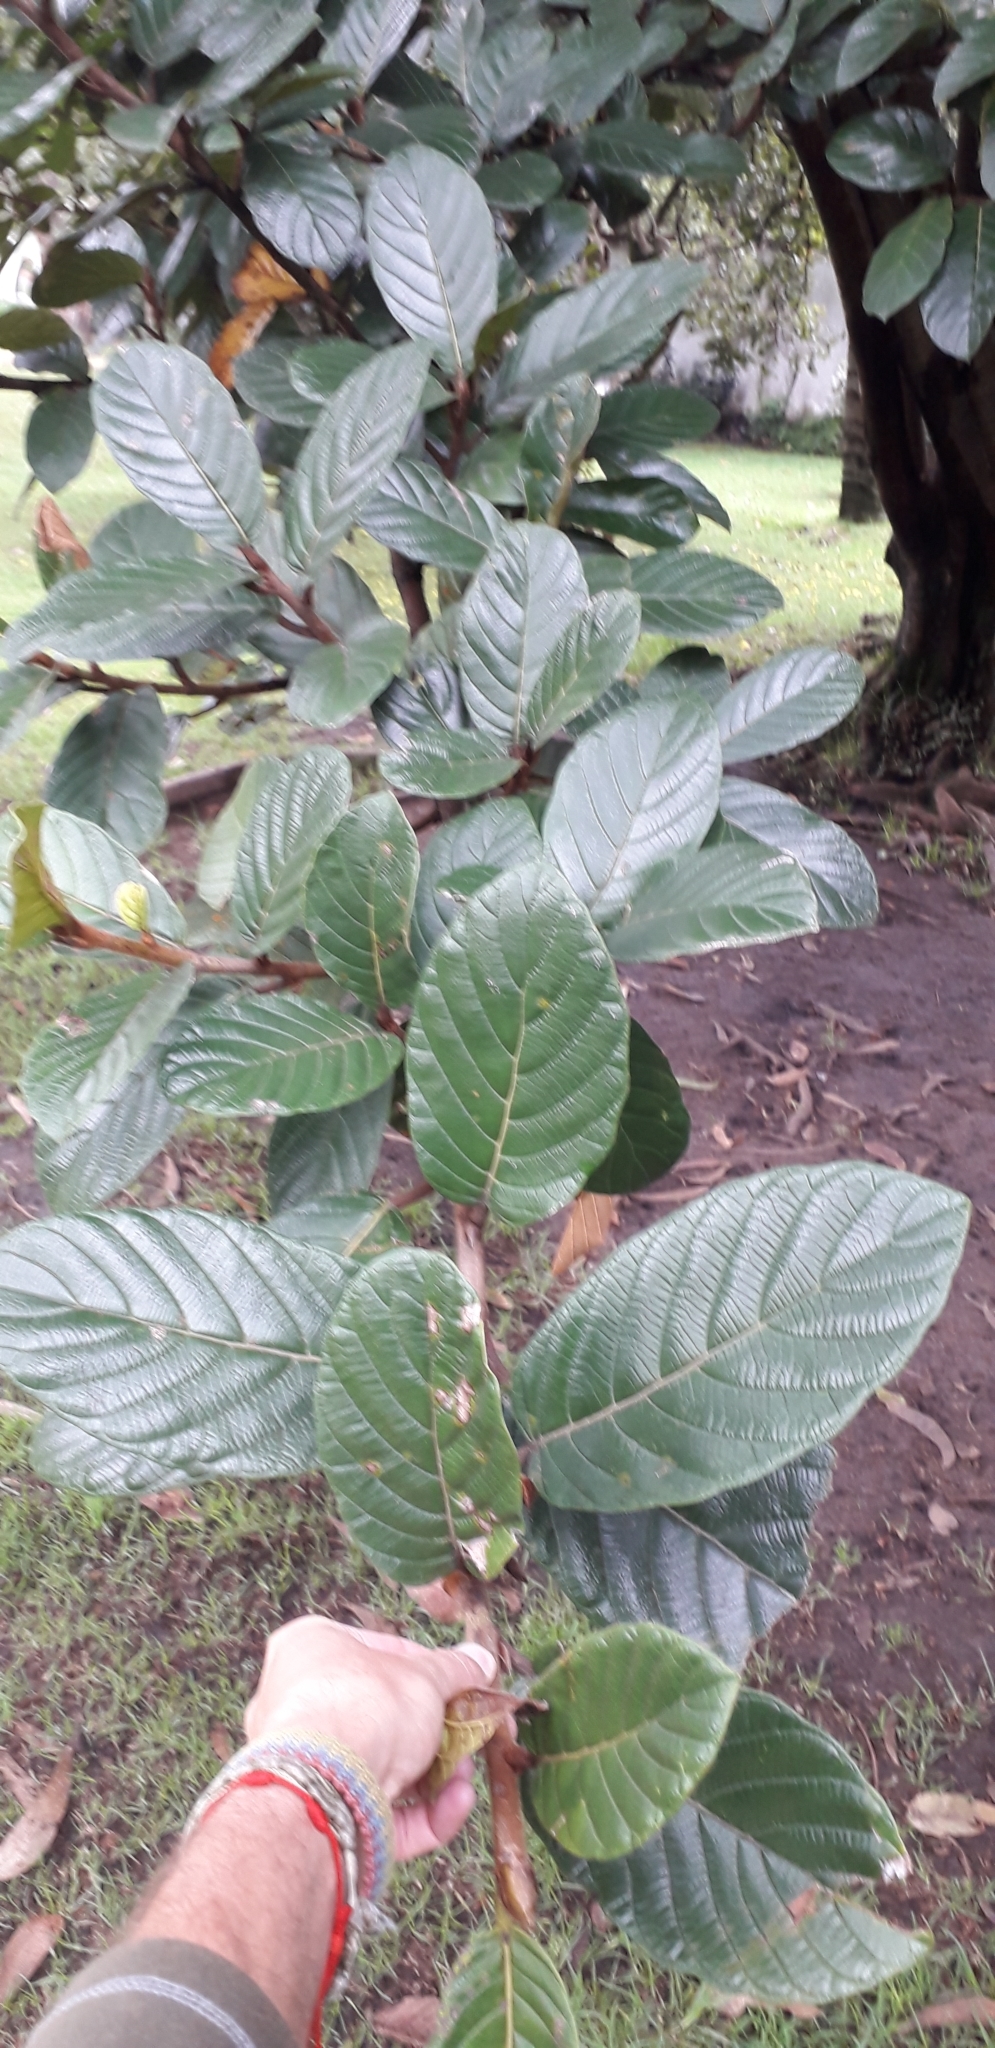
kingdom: Plantae
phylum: Tracheophyta
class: Magnoliopsida
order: Rosales
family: Moraceae
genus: Ficus
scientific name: Ficus tequendamae
